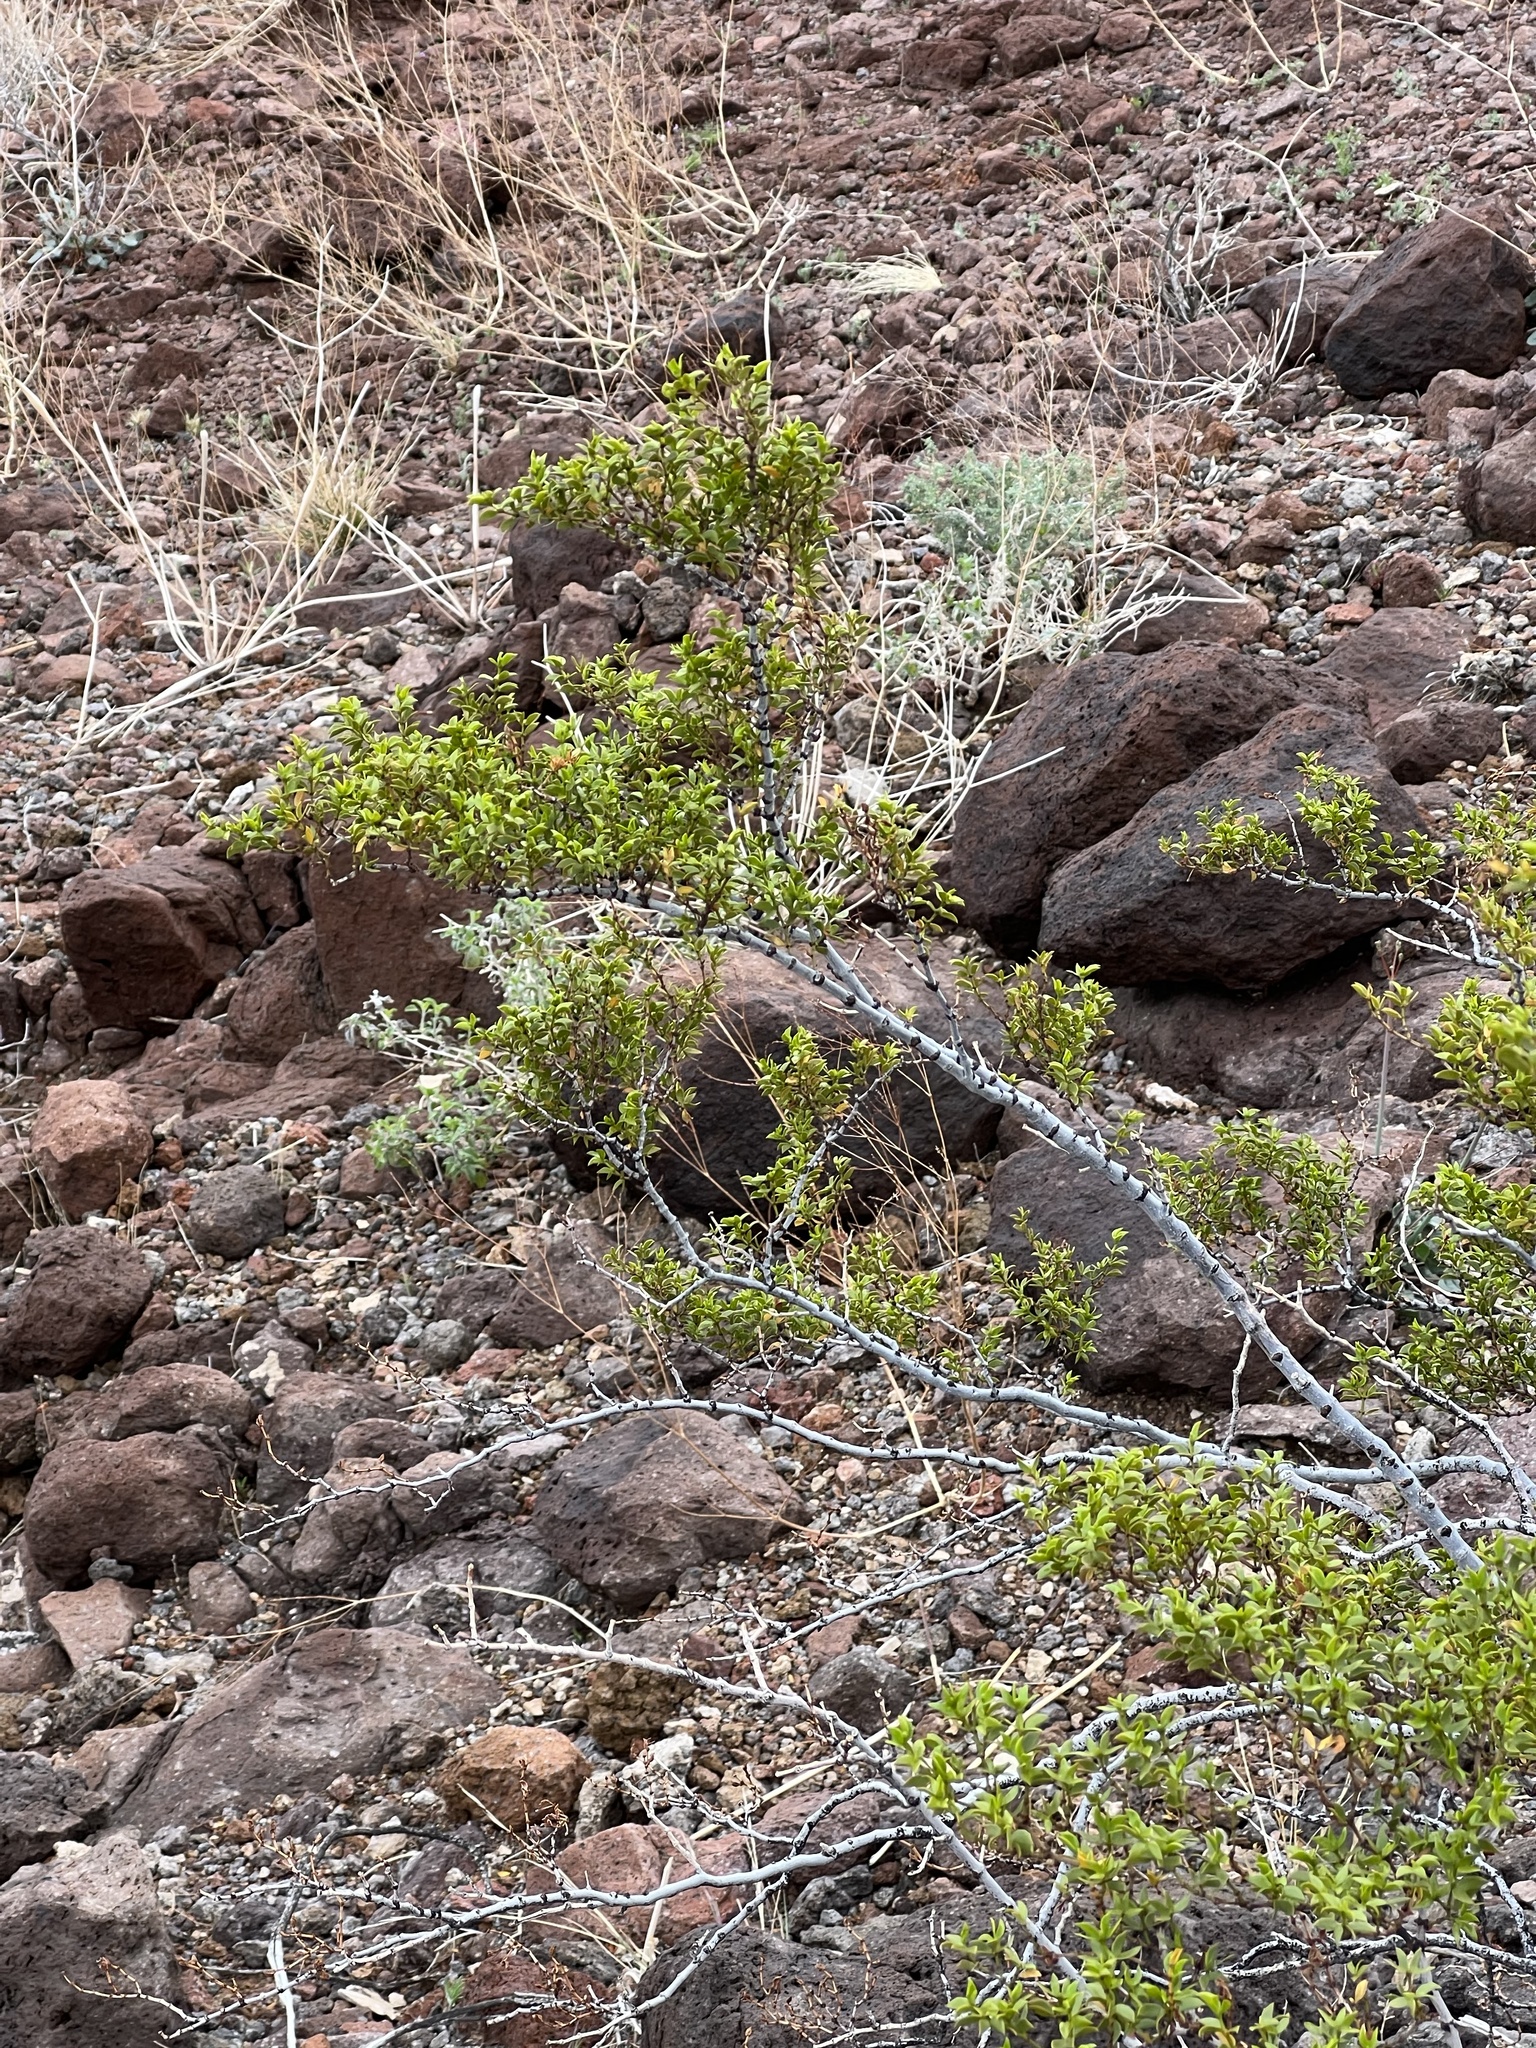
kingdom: Plantae
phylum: Tracheophyta
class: Magnoliopsida
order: Zygophyllales
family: Zygophyllaceae
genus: Larrea
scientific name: Larrea tridentata
